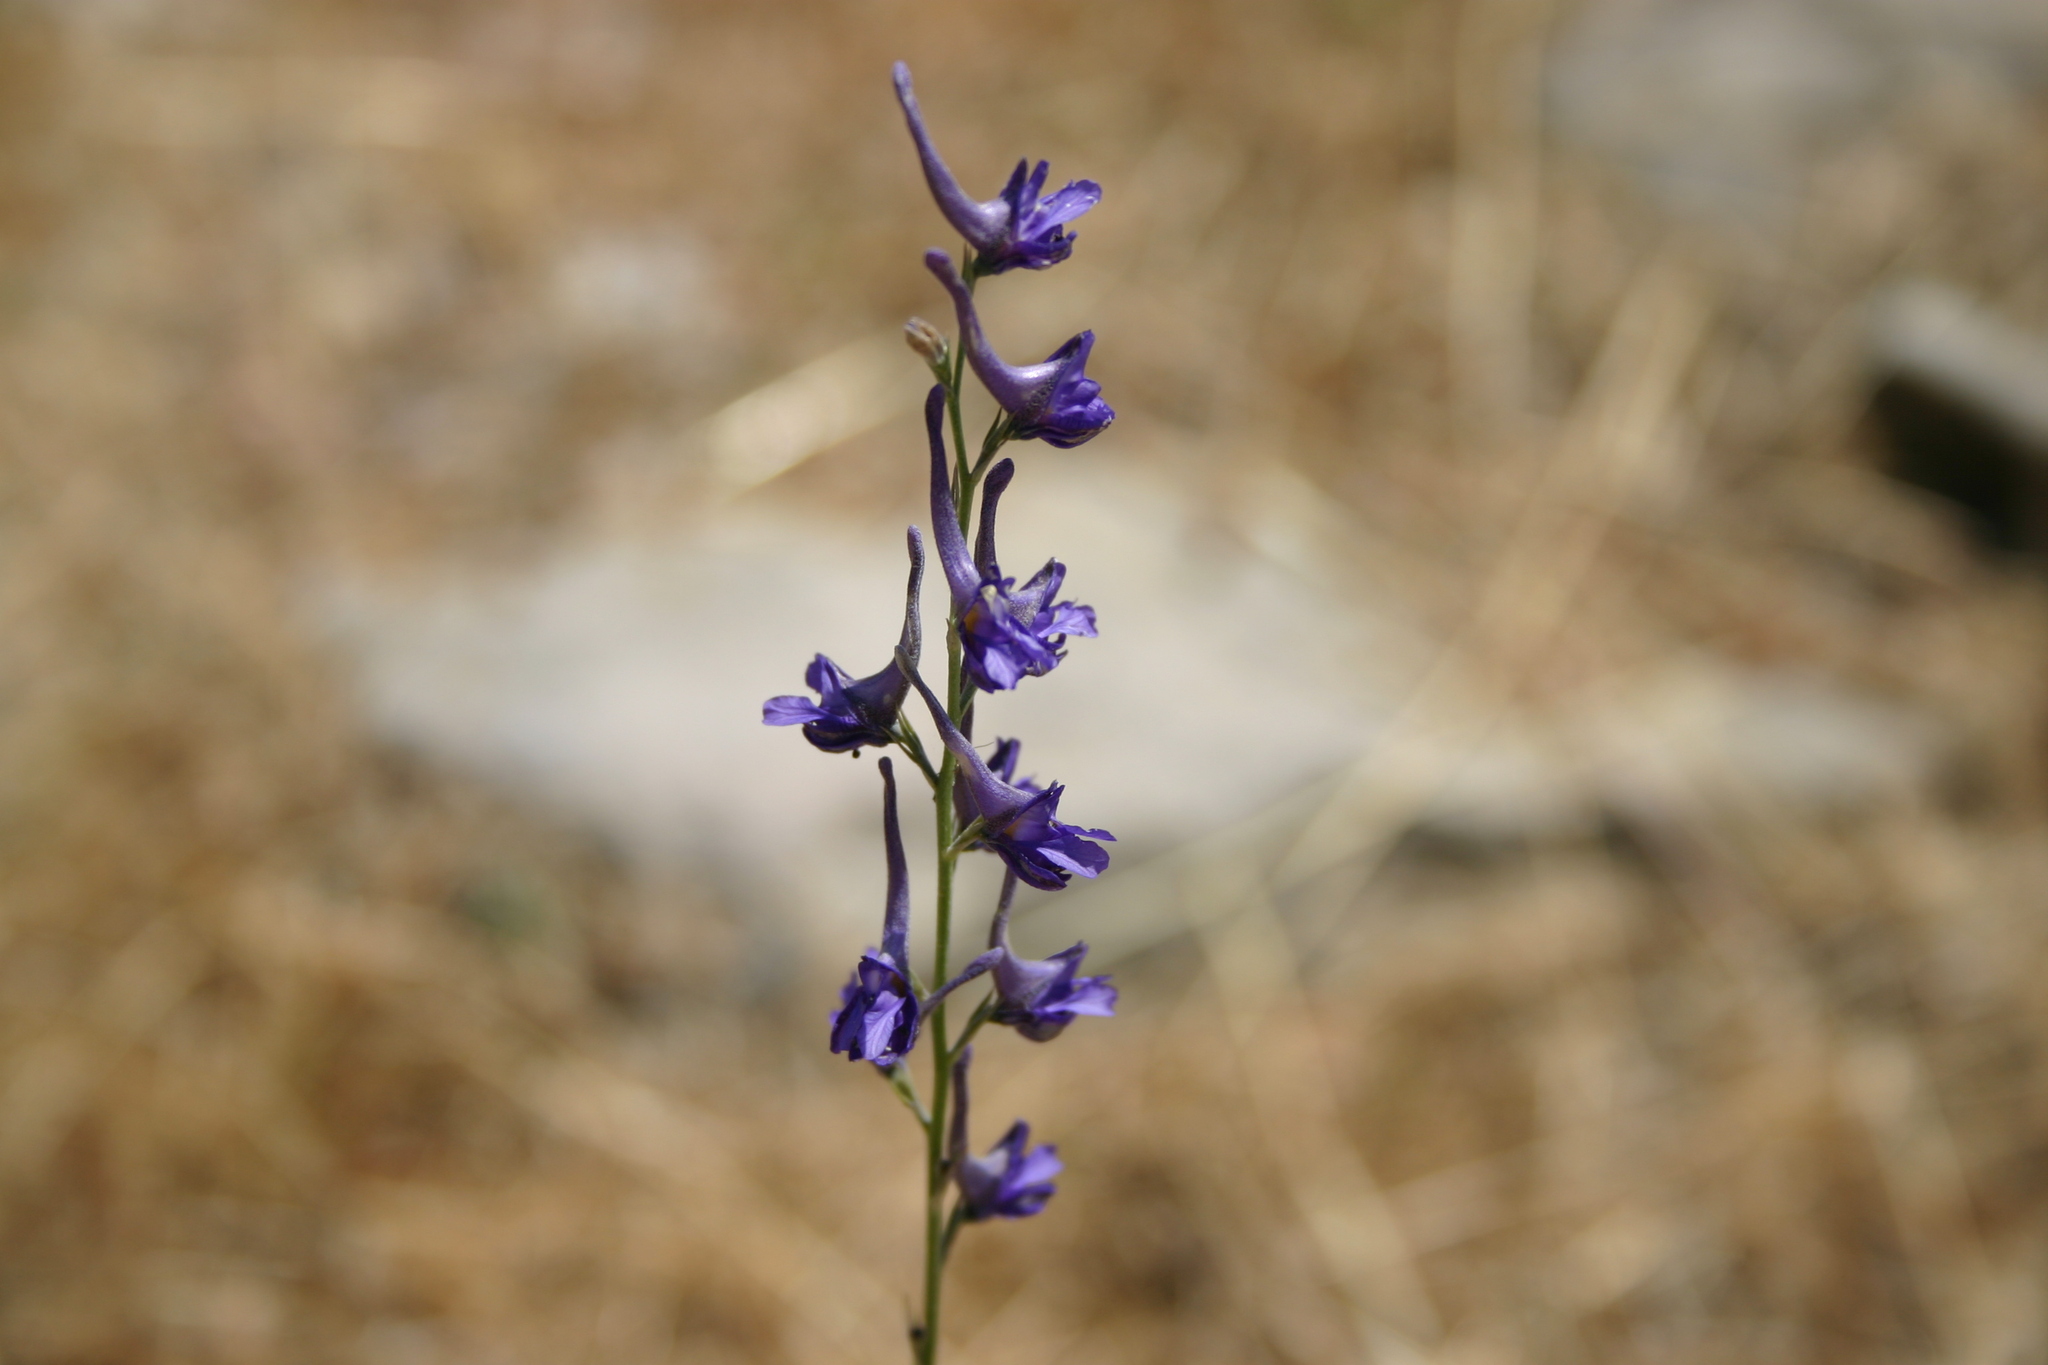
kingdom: Plantae
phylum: Tracheophyta
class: Magnoliopsida
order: Ranunculales
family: Ranunculaceae
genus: Delphinium
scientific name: Delphinium peregrinum
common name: Violet larkspur
